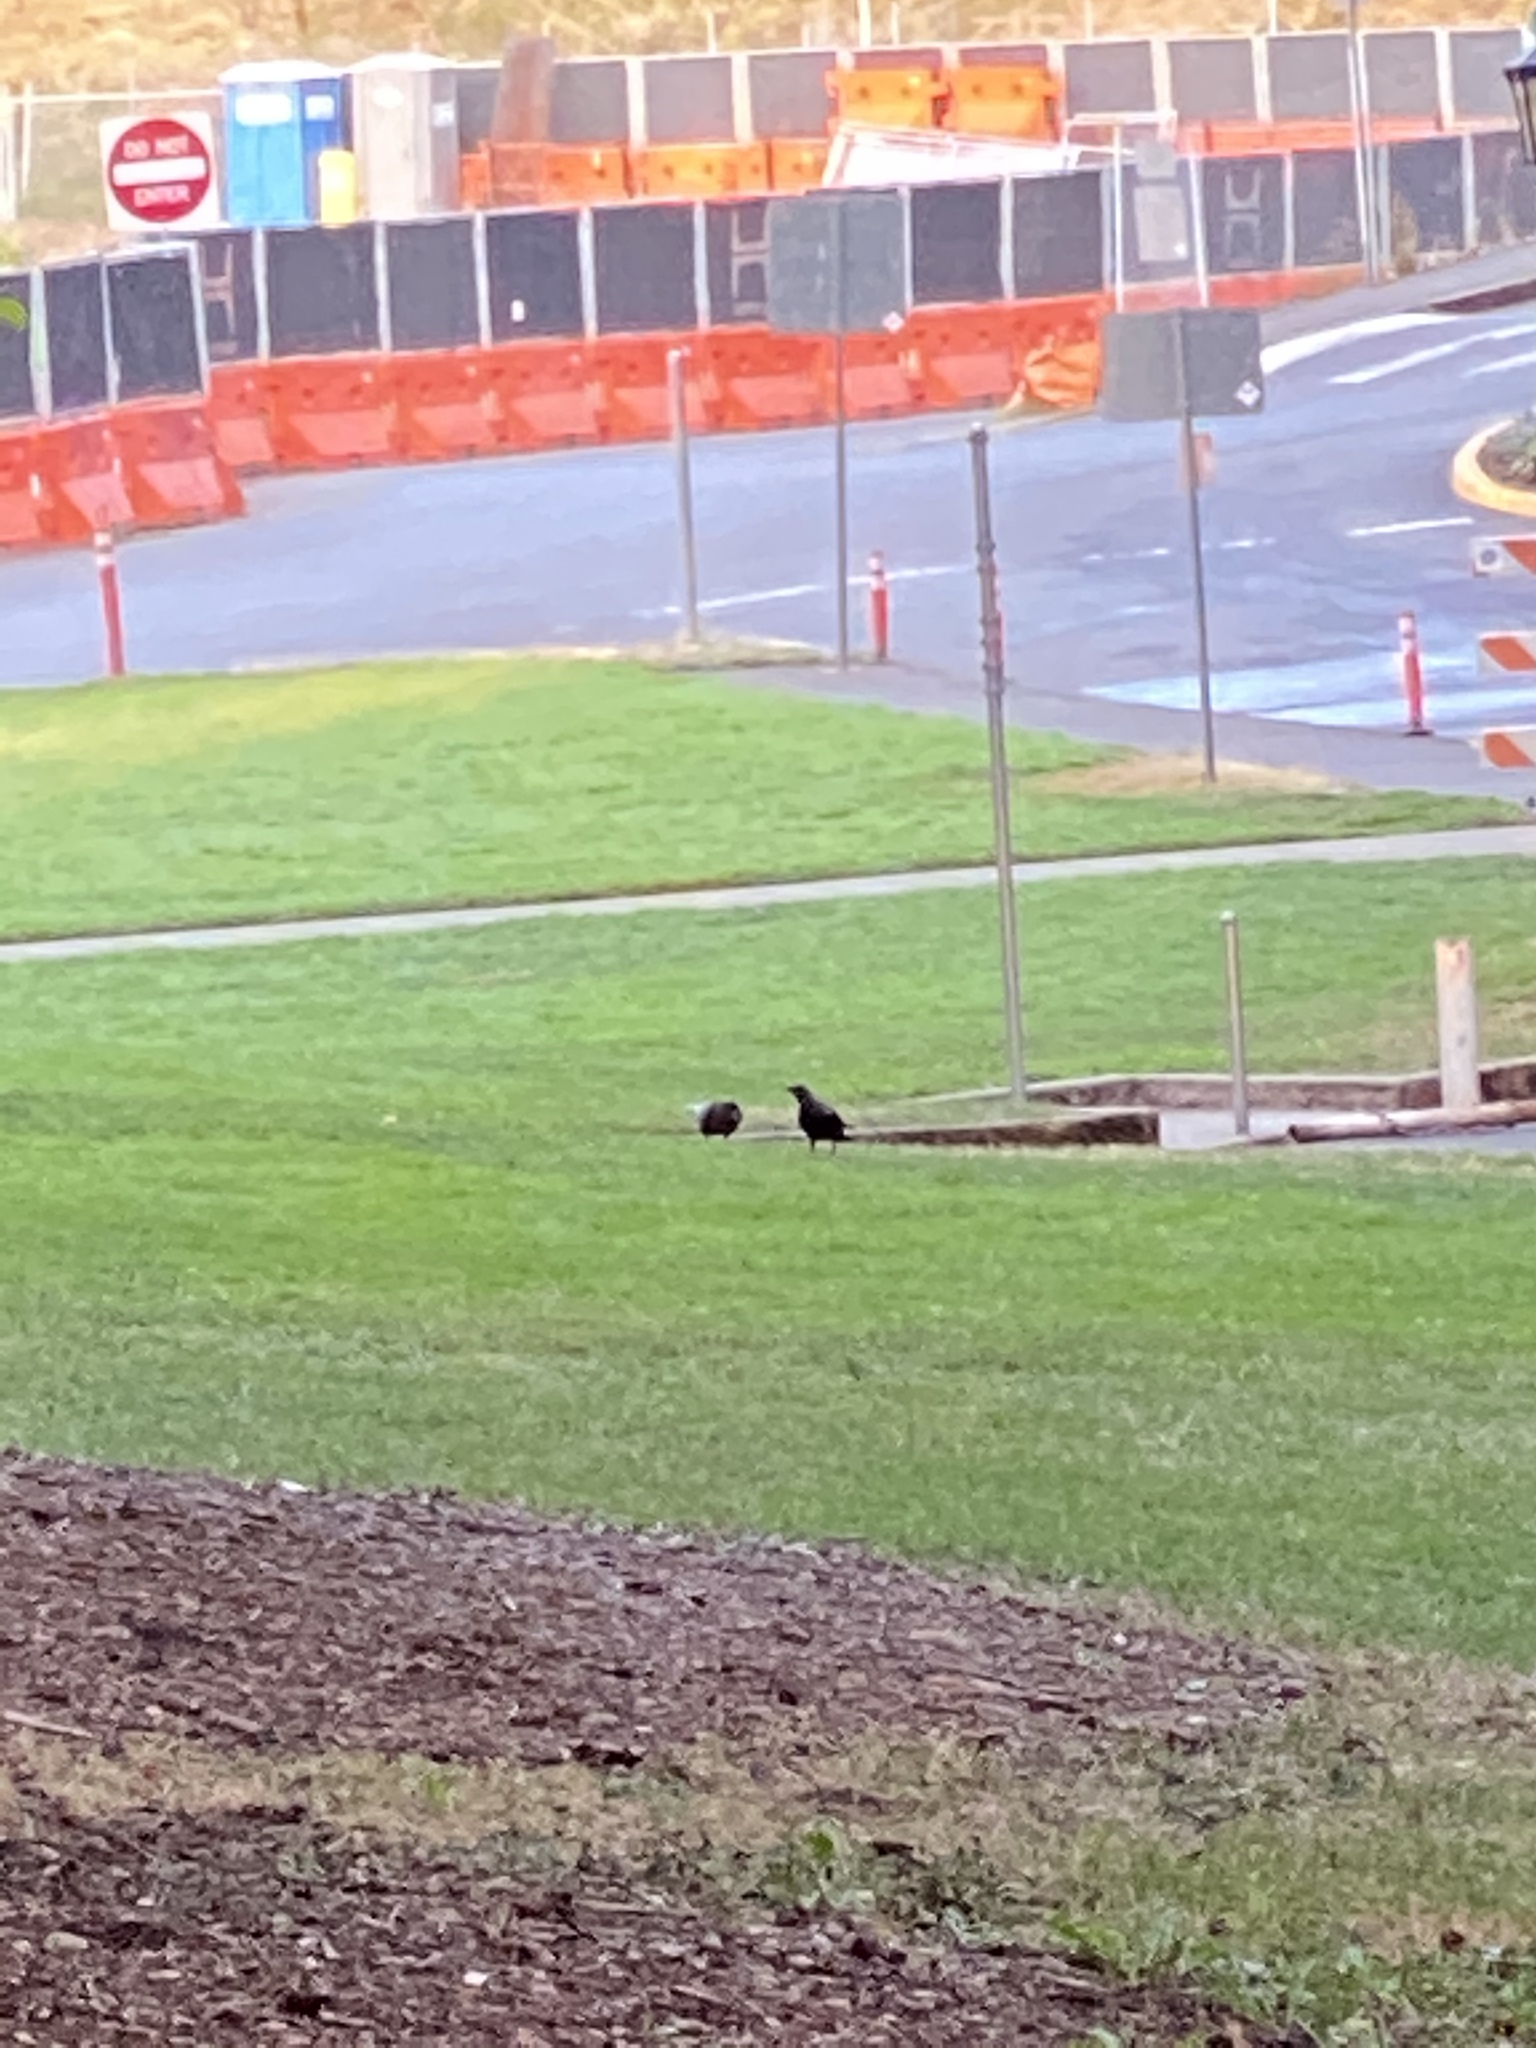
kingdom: Animalia
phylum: Chordata
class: Aves
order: Passeriformes
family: Corvidae
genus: Corvus
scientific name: Corvus brachyrhynchos
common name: American crow
